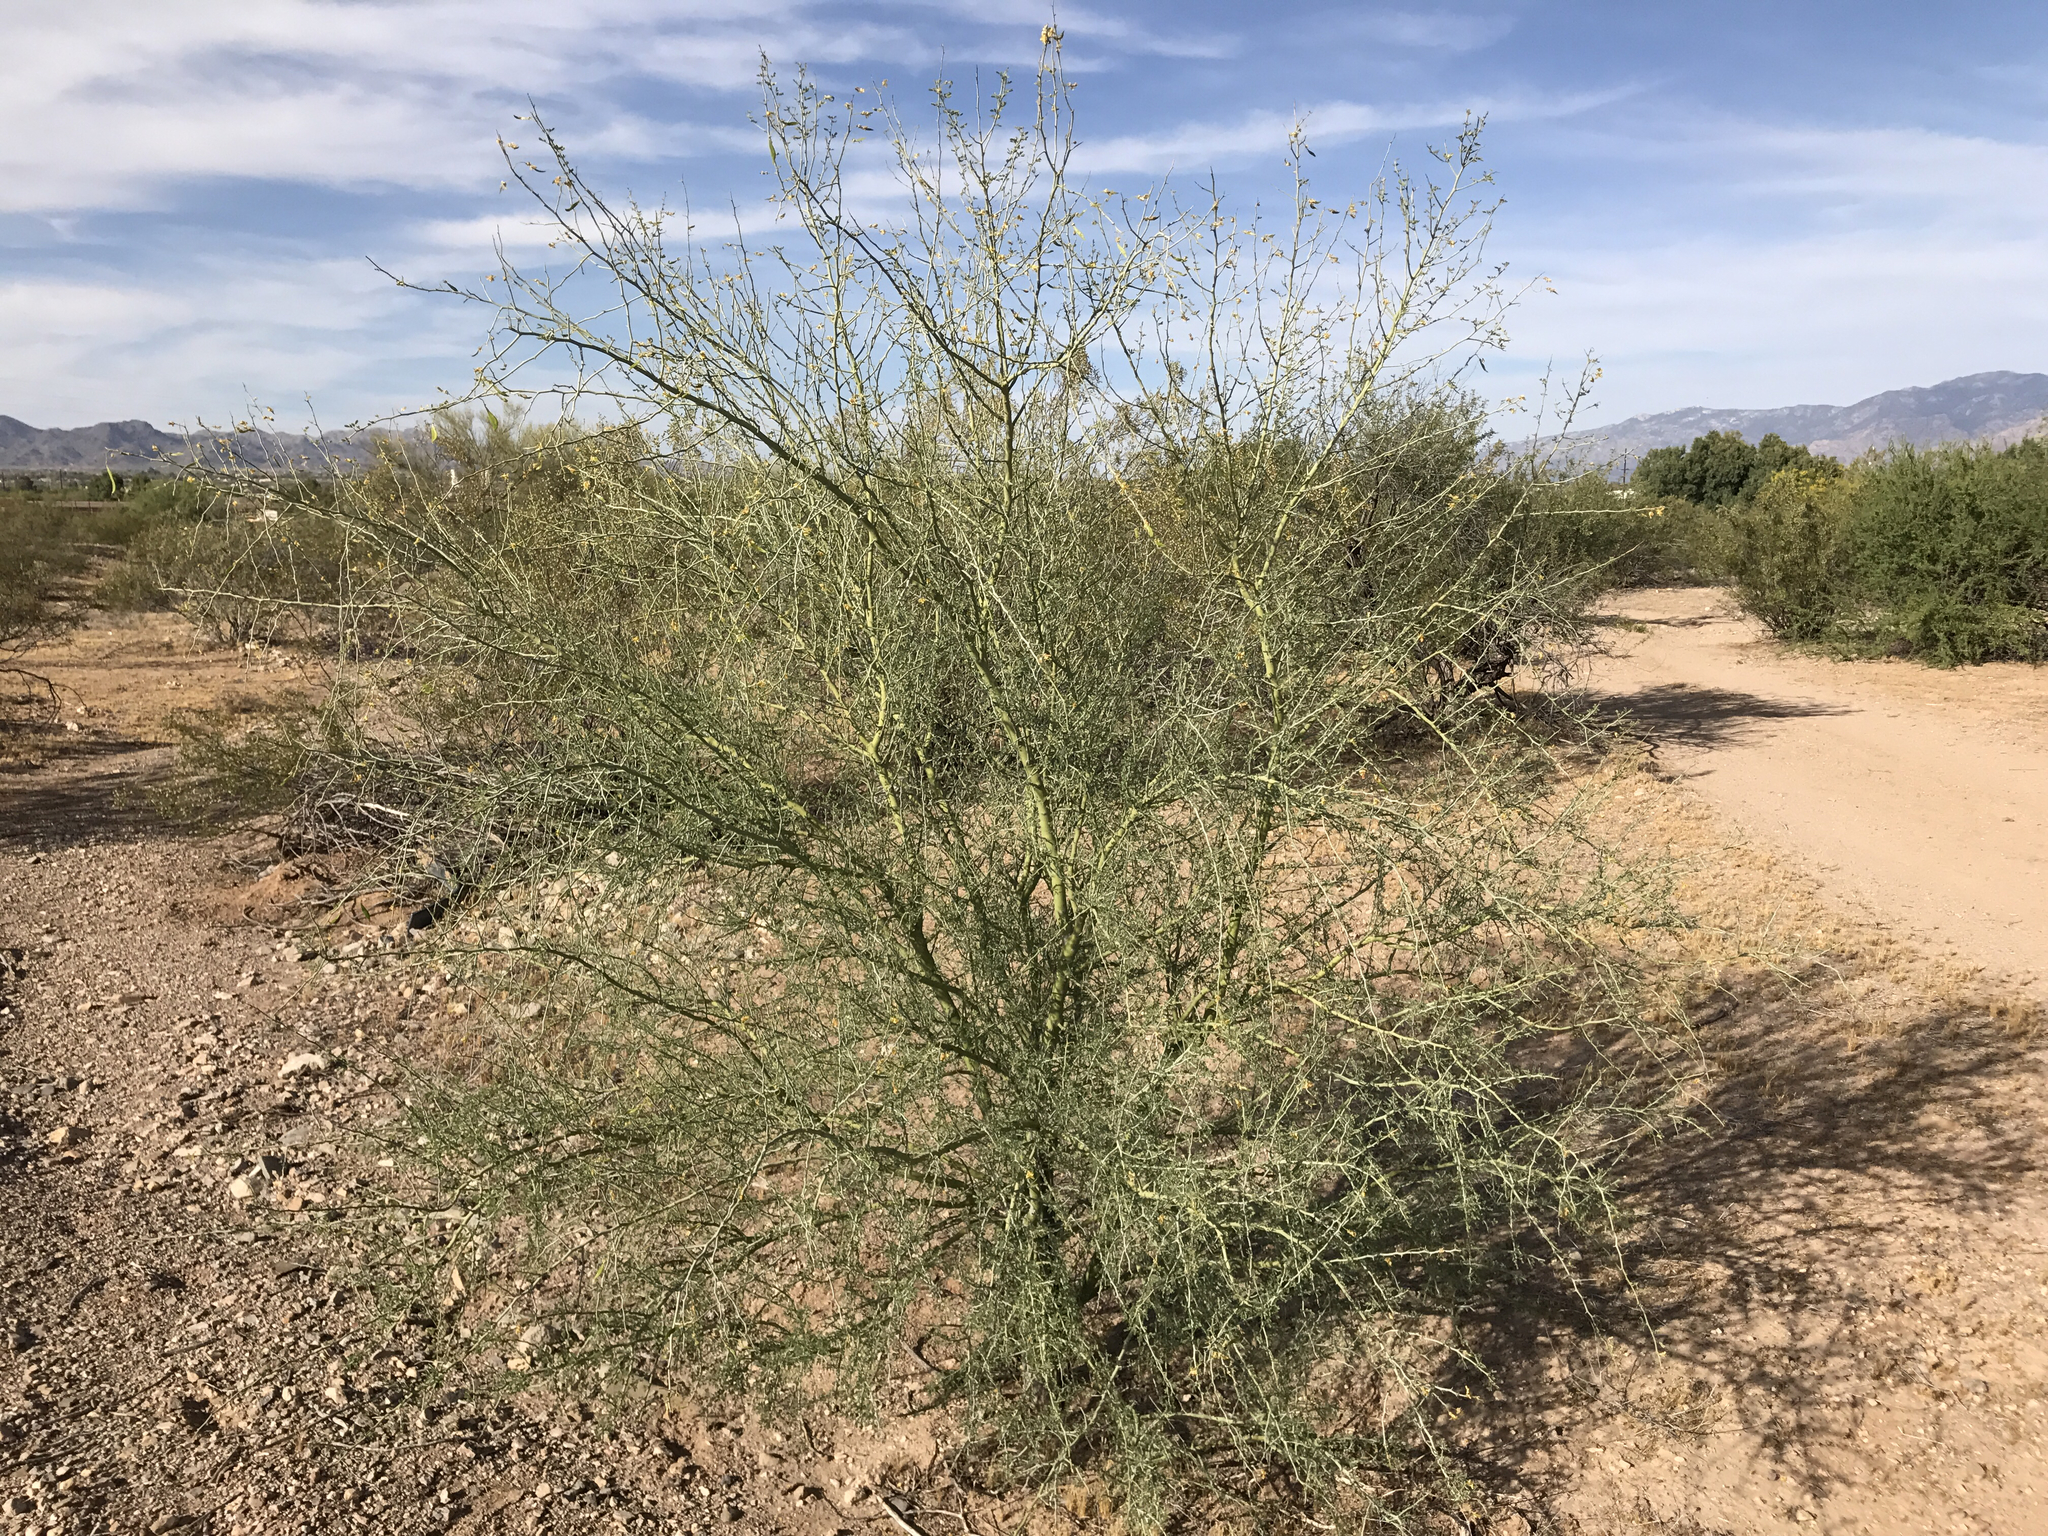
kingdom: Plantae
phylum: Tracheophyta
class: Magnoliopsida
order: Fabales
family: Fabaceae
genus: Parkinsonia
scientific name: Parkinsonia praecox
